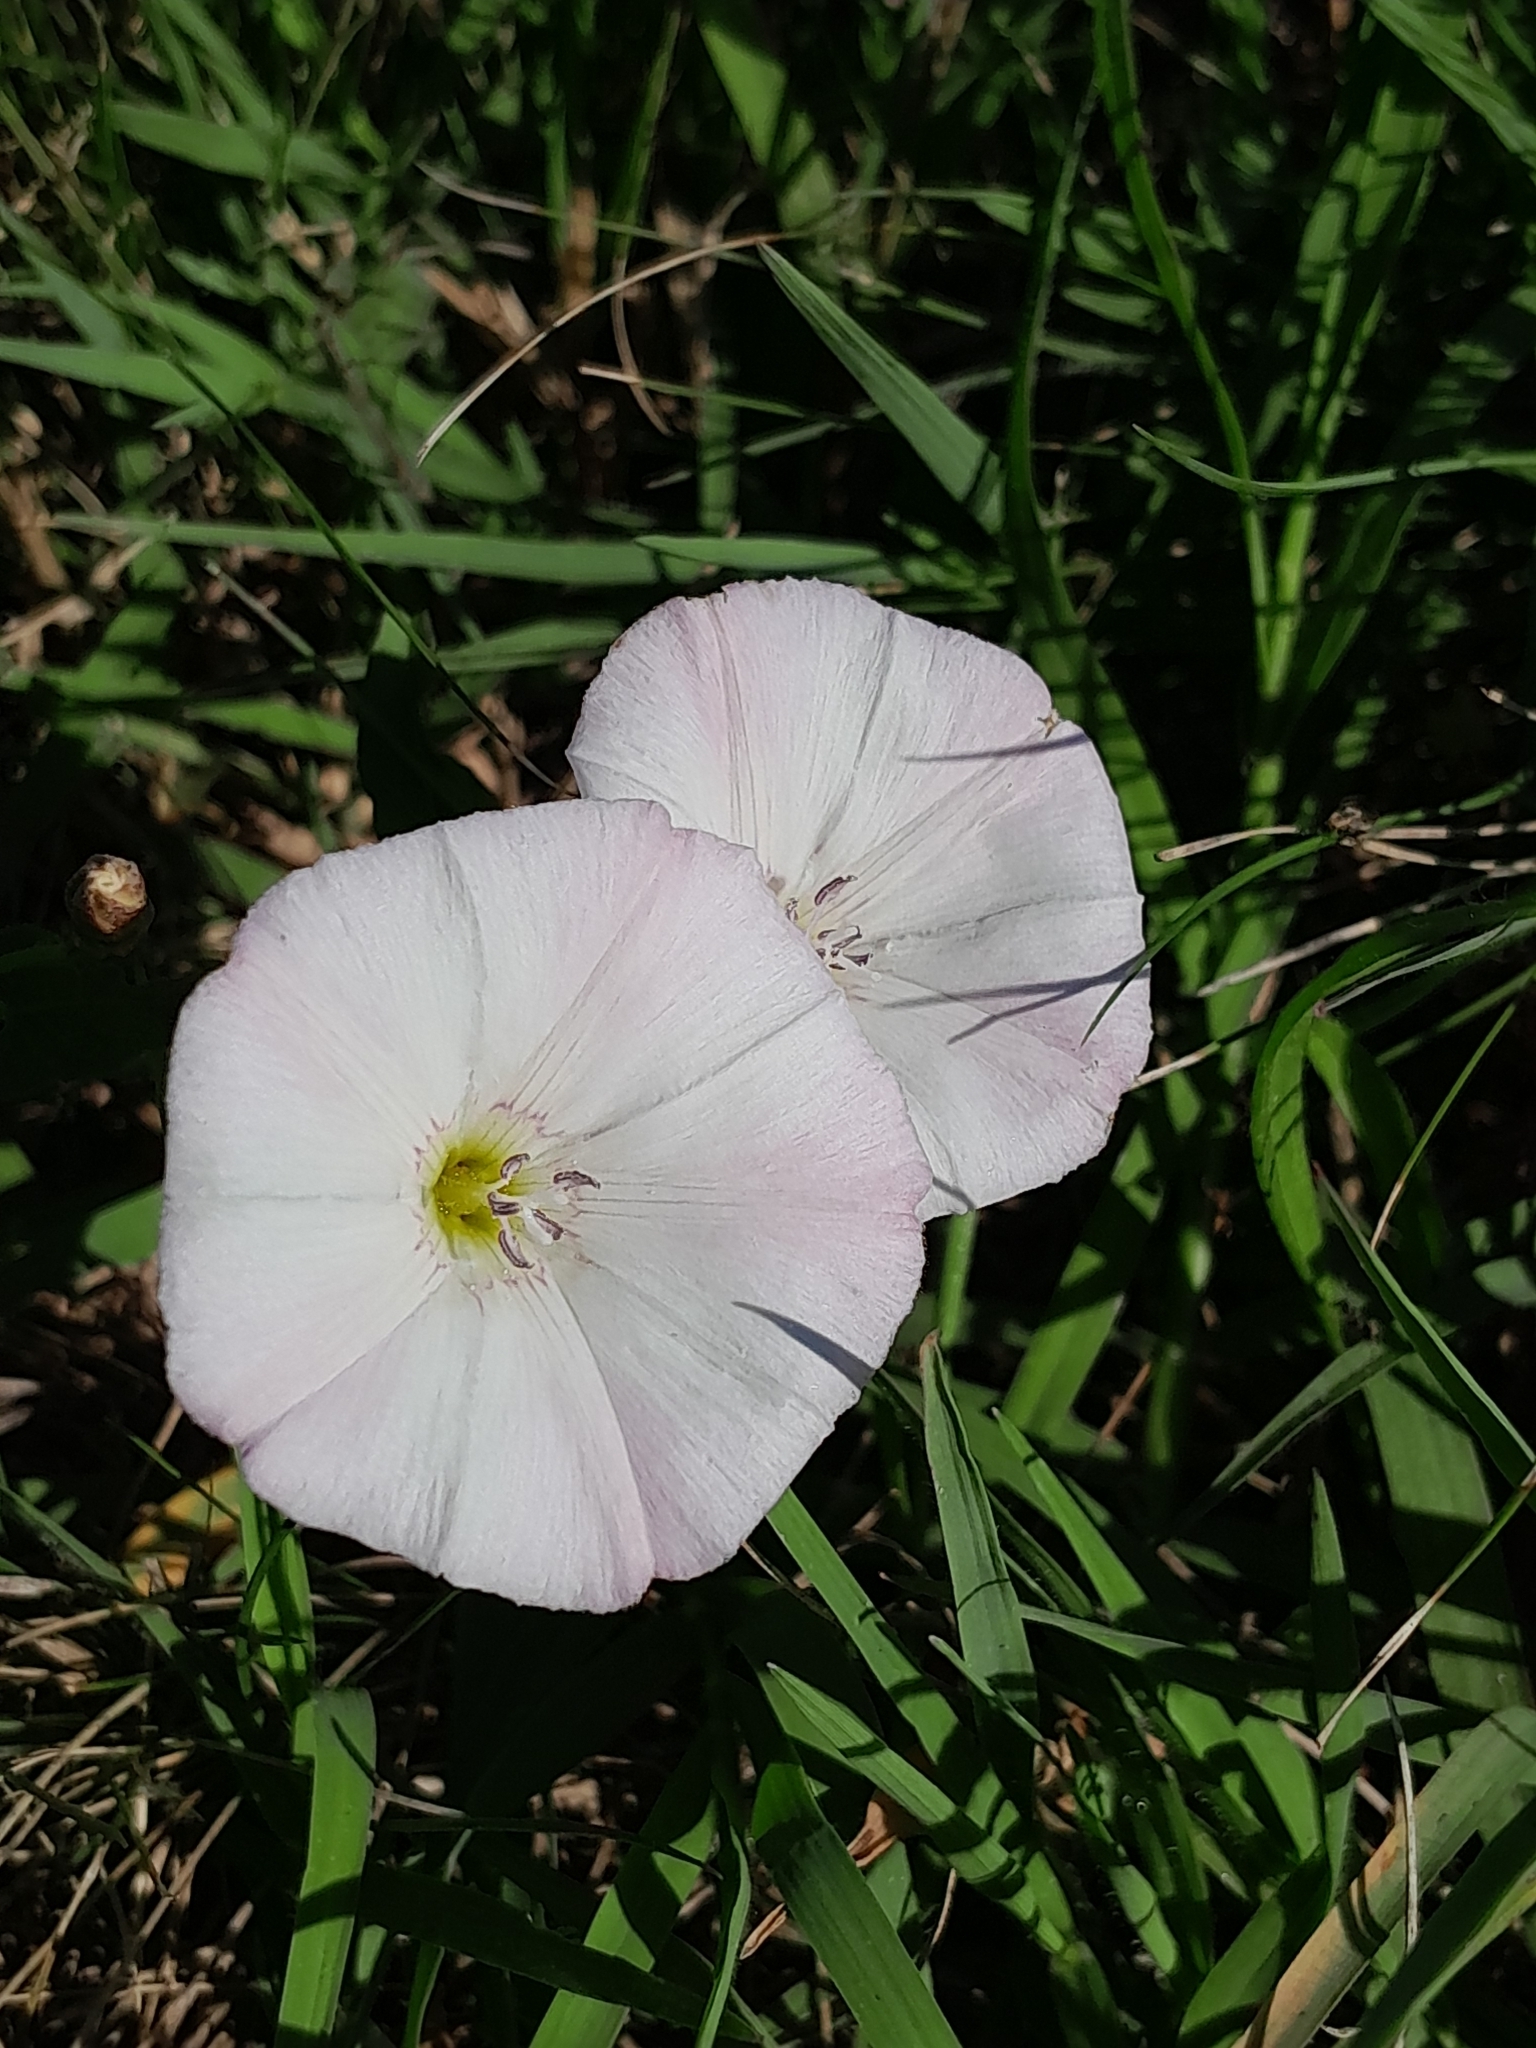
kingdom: Plantae
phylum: Tracheophyta
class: Magnoliopsida
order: Solanales
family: Convolvulaceae
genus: Convolvulus
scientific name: Convolvulus arvensis
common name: Field bindweed
